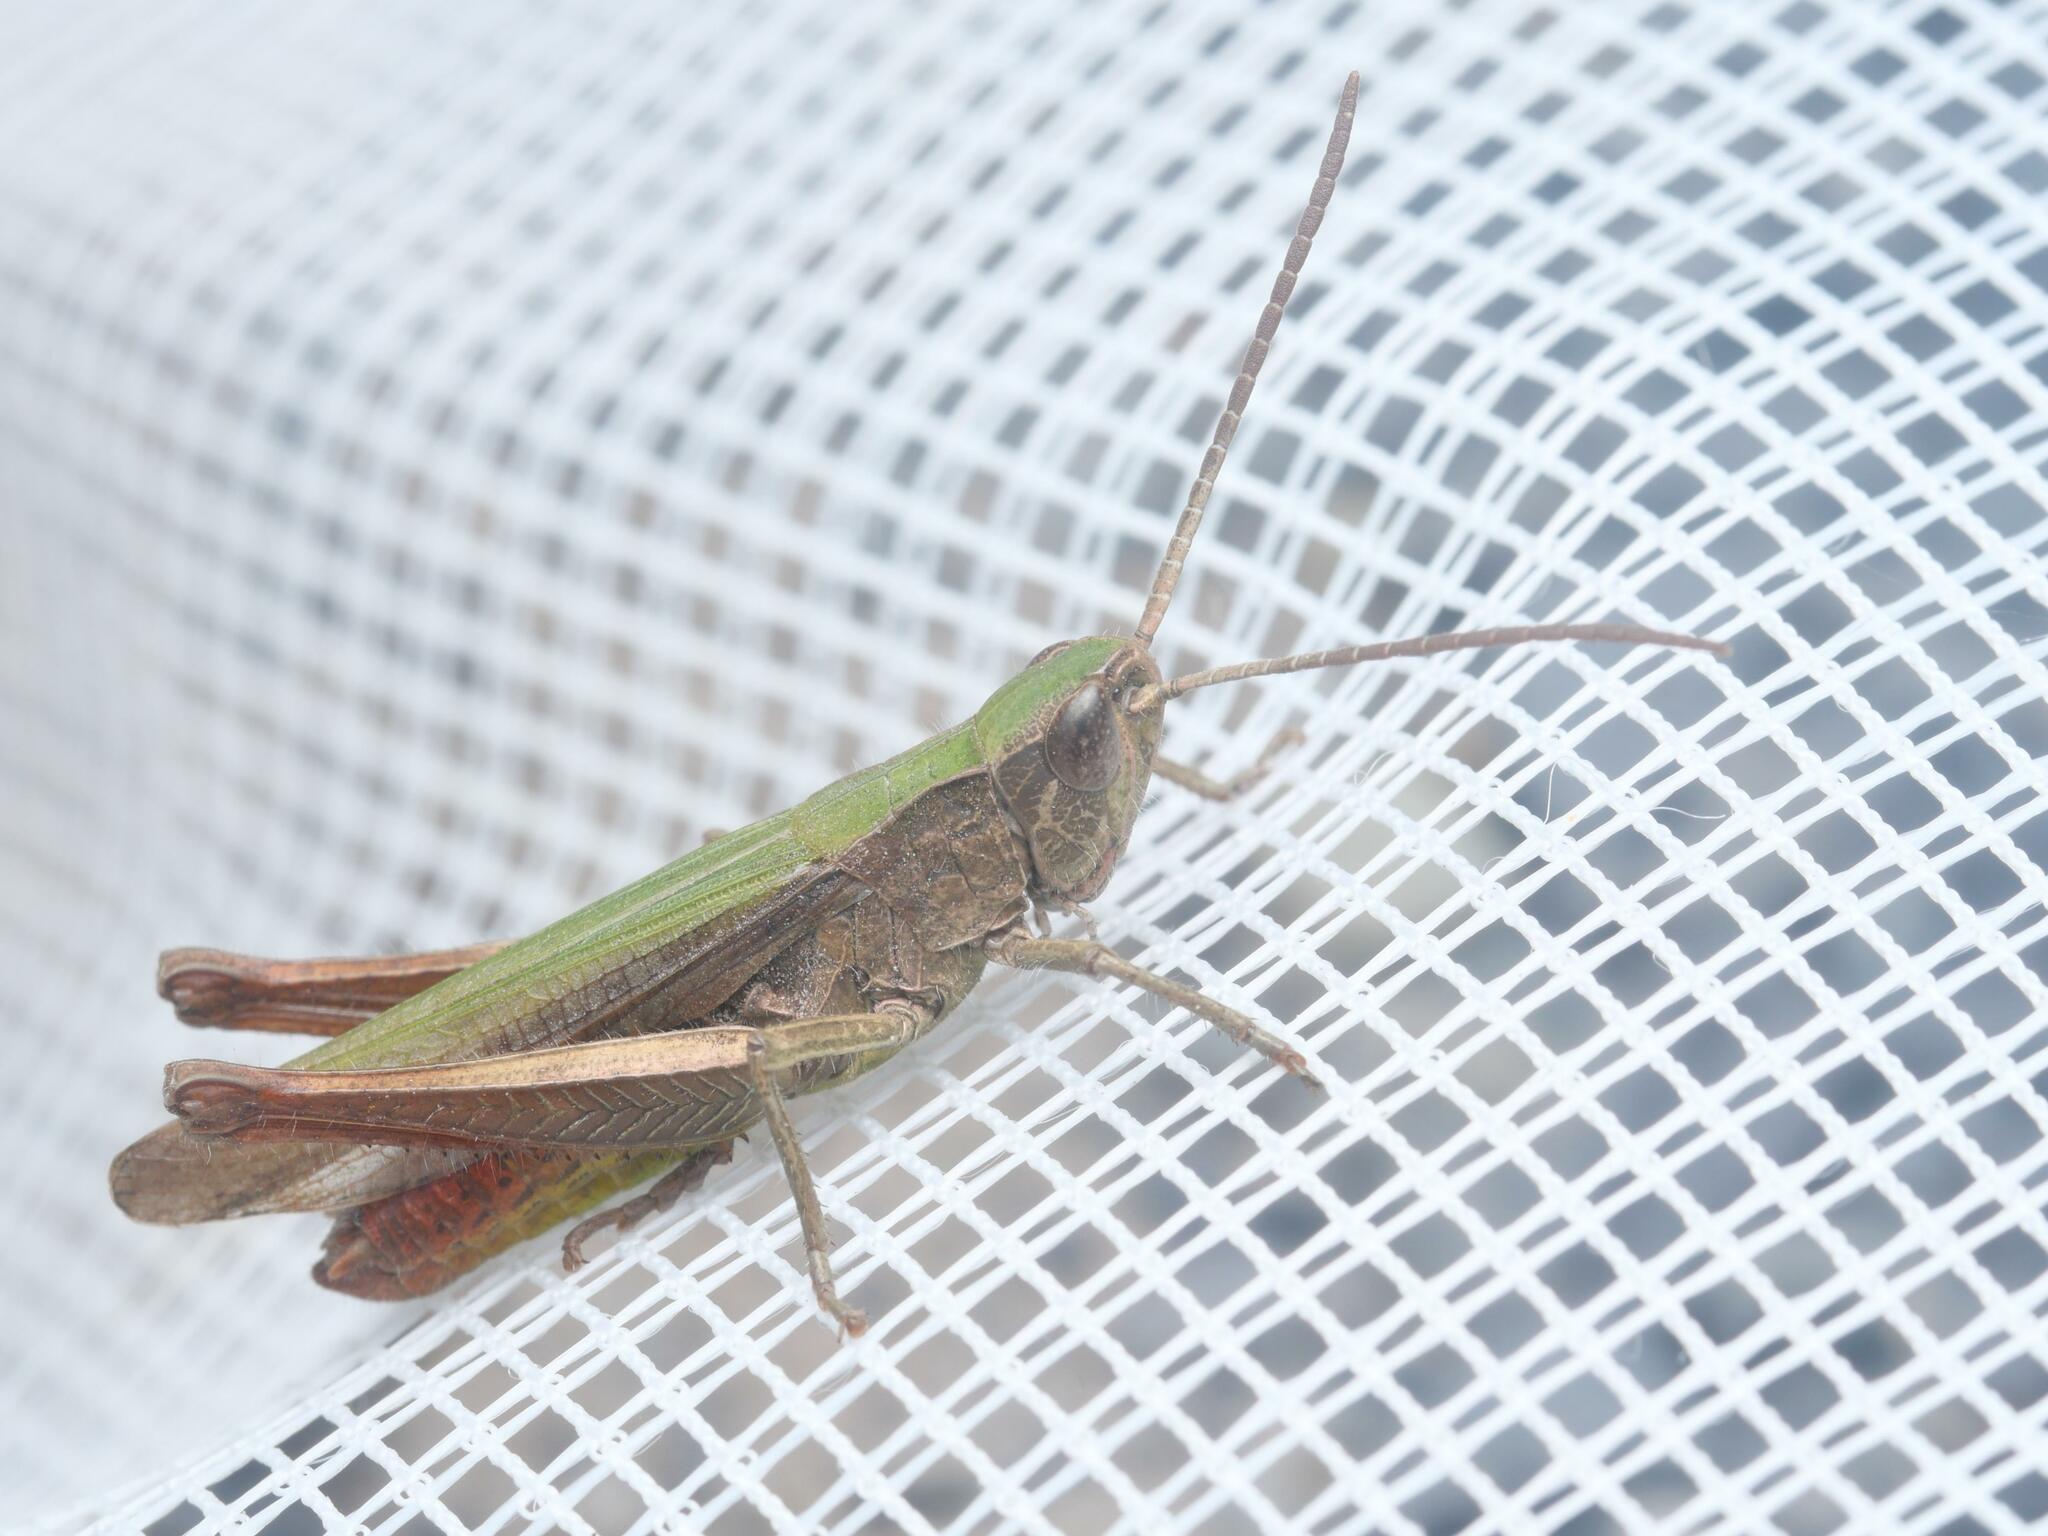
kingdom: Animalia
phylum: Arthropoda
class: Insecta
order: Orthoptera
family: Acrididae
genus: Chorthippus
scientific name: Chorthippus dorsatus
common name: Steppe grasshopper
